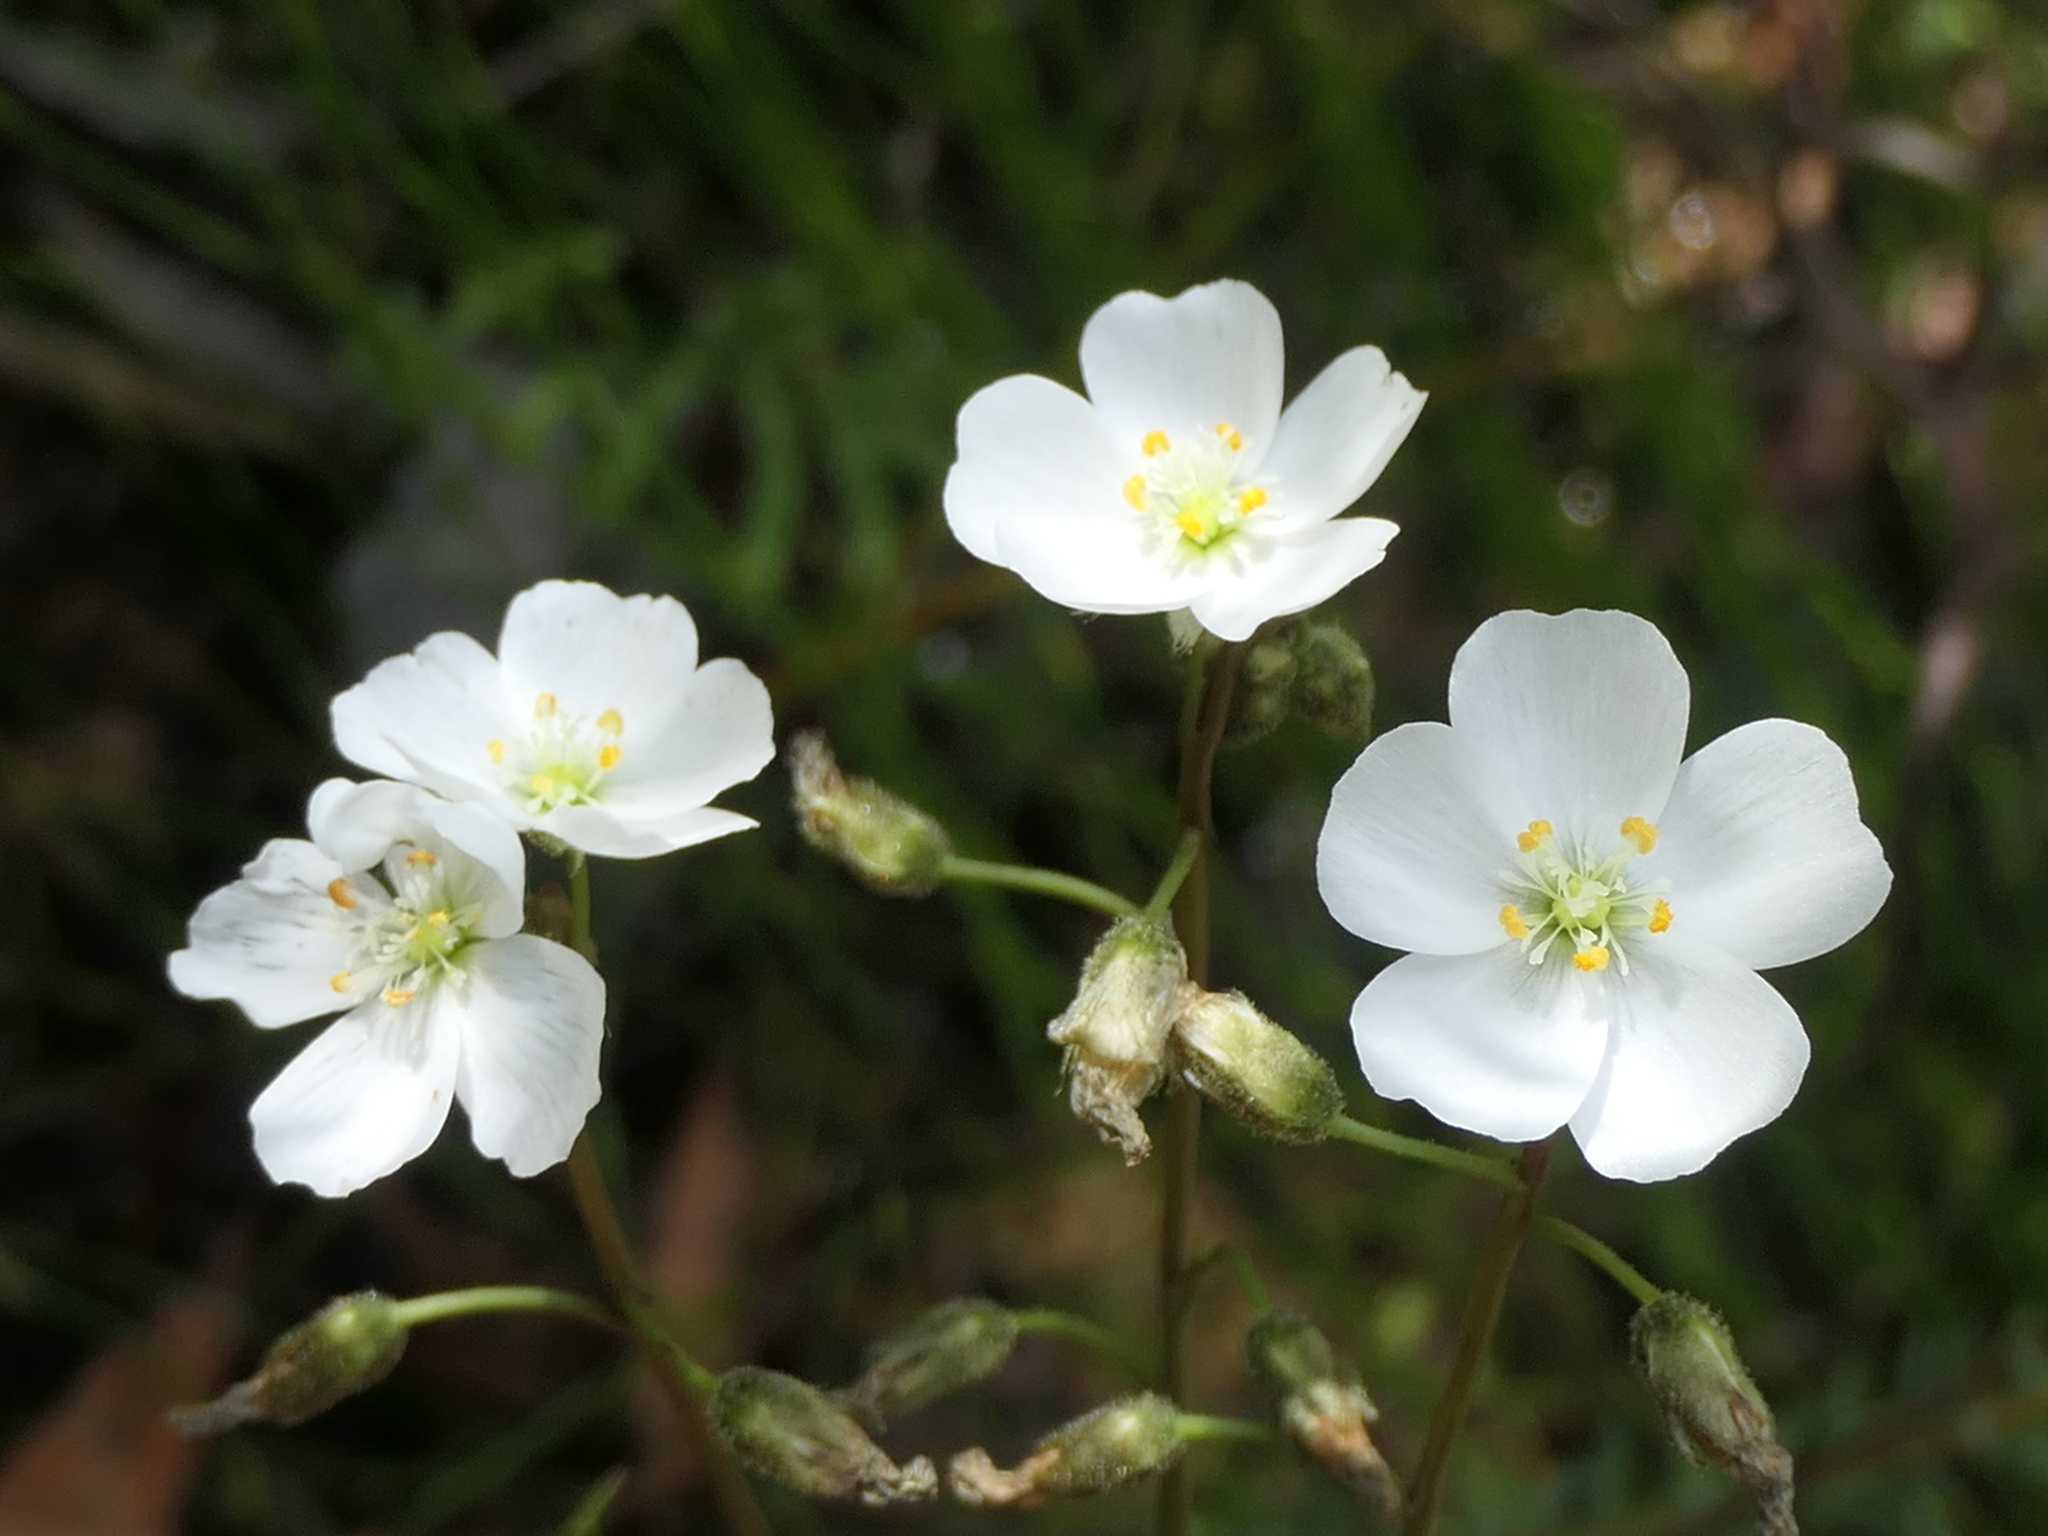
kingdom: Plantae
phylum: Tracheophyta
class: Magnoliopsida
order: Caryophyllales
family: Droseraceae
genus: Drosera
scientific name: Drosera binata
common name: Forked sundew
